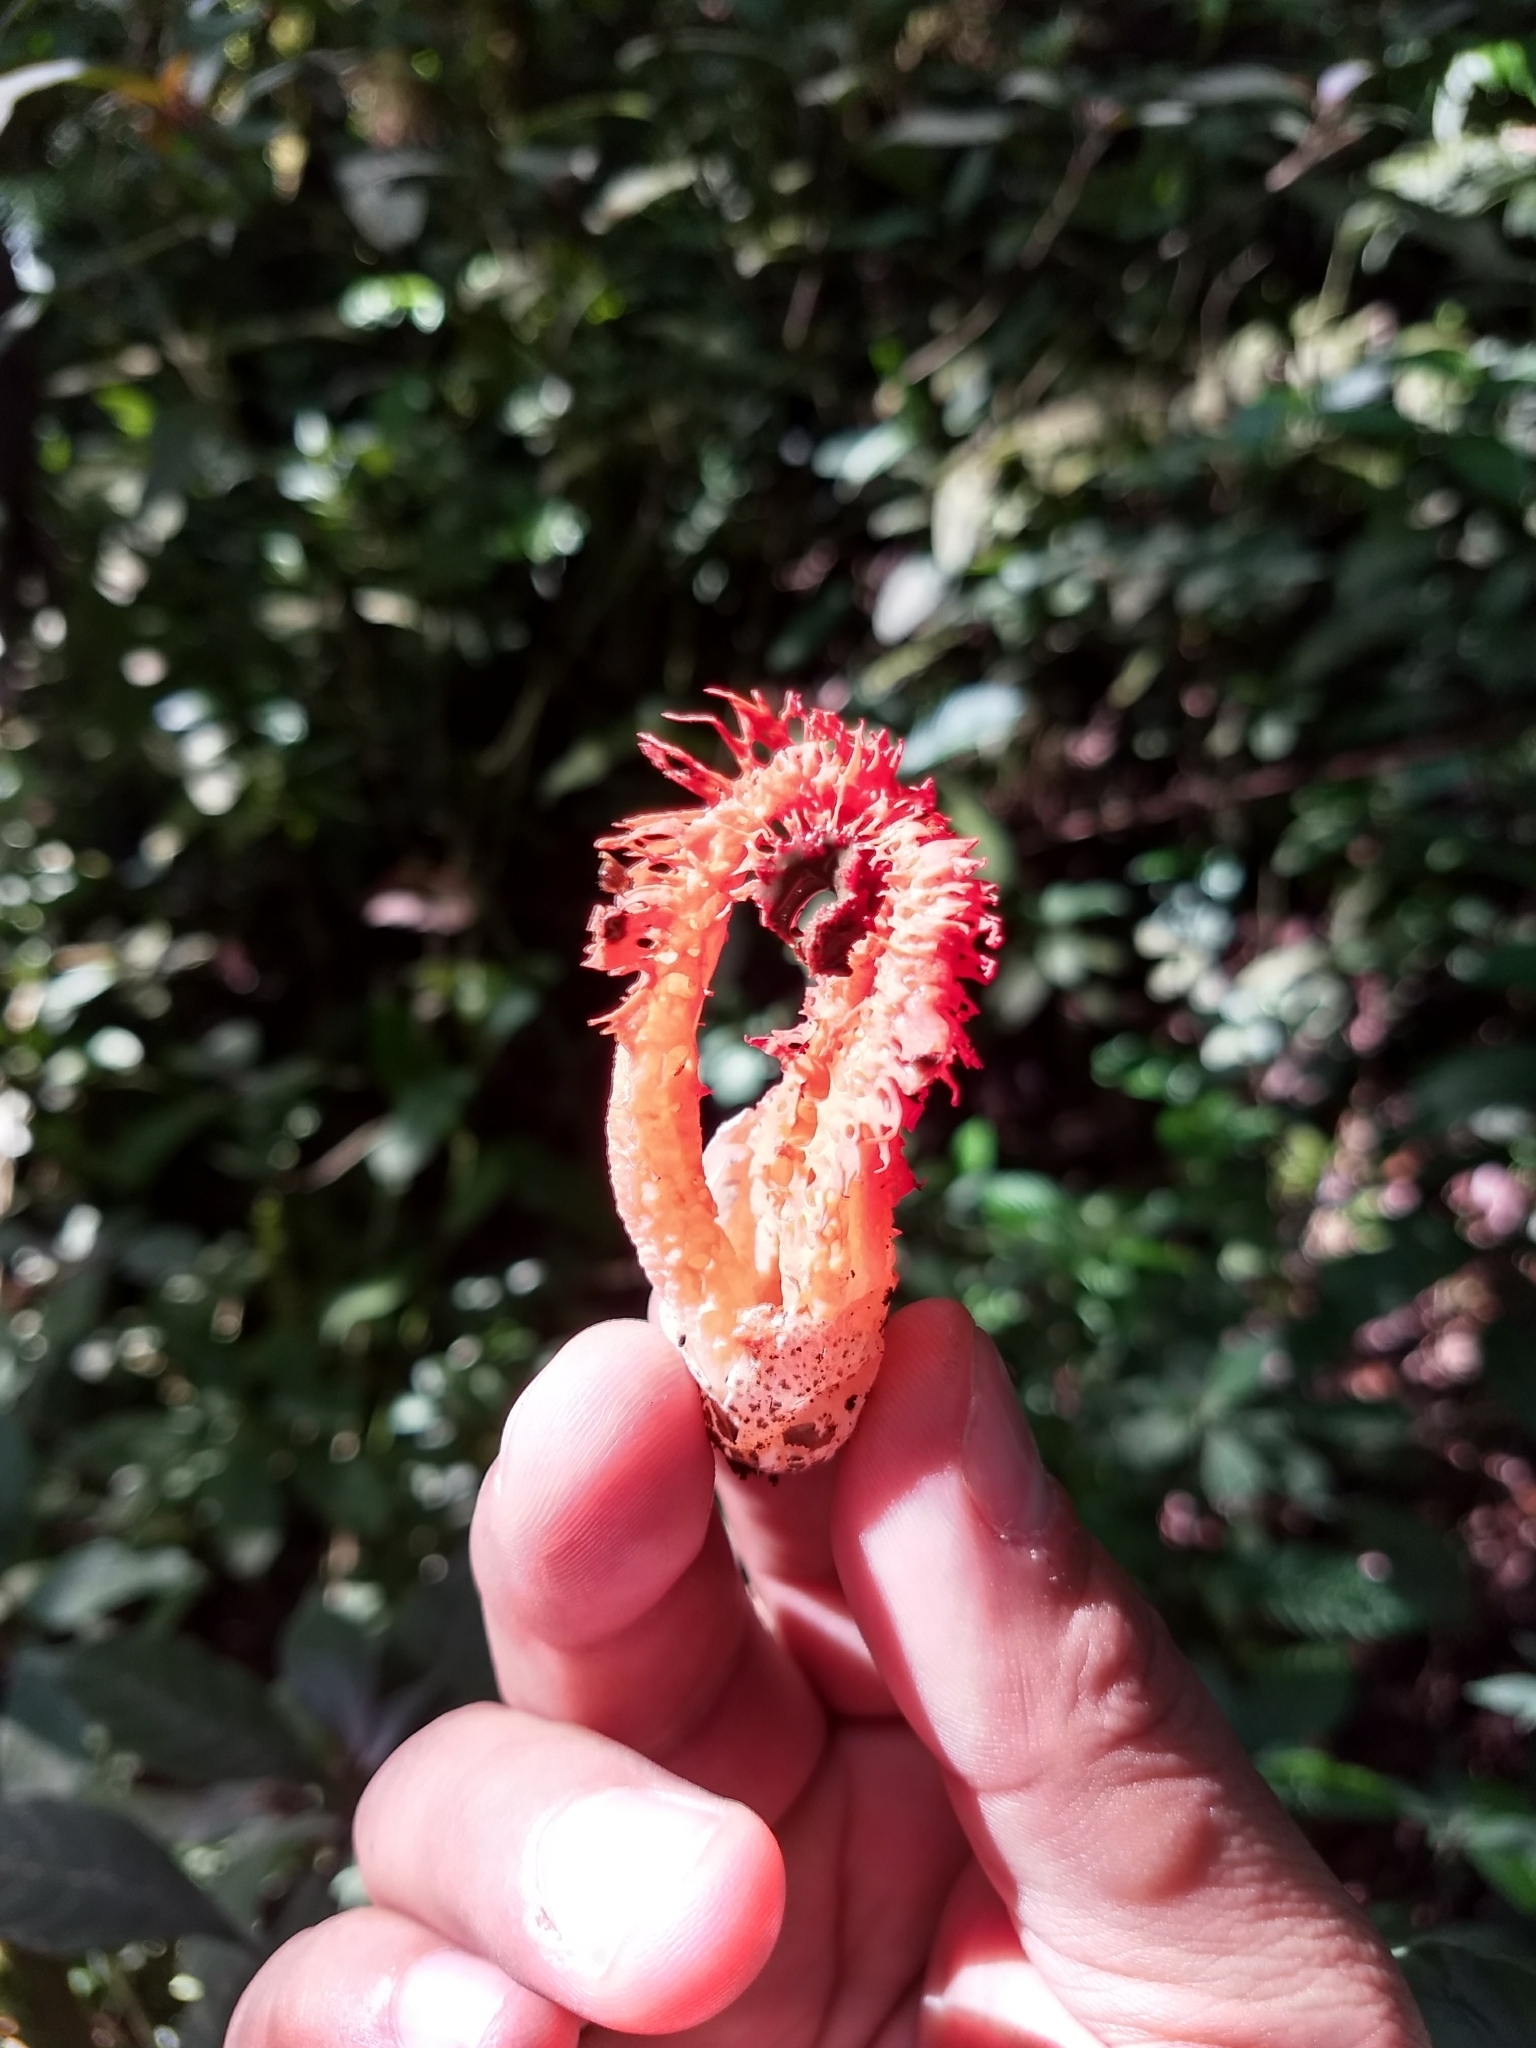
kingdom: Fungi
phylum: Basidiomycota
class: Agaricomycetes
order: Phallales
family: Phallaceae
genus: Laternea
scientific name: Laternea pusilla
